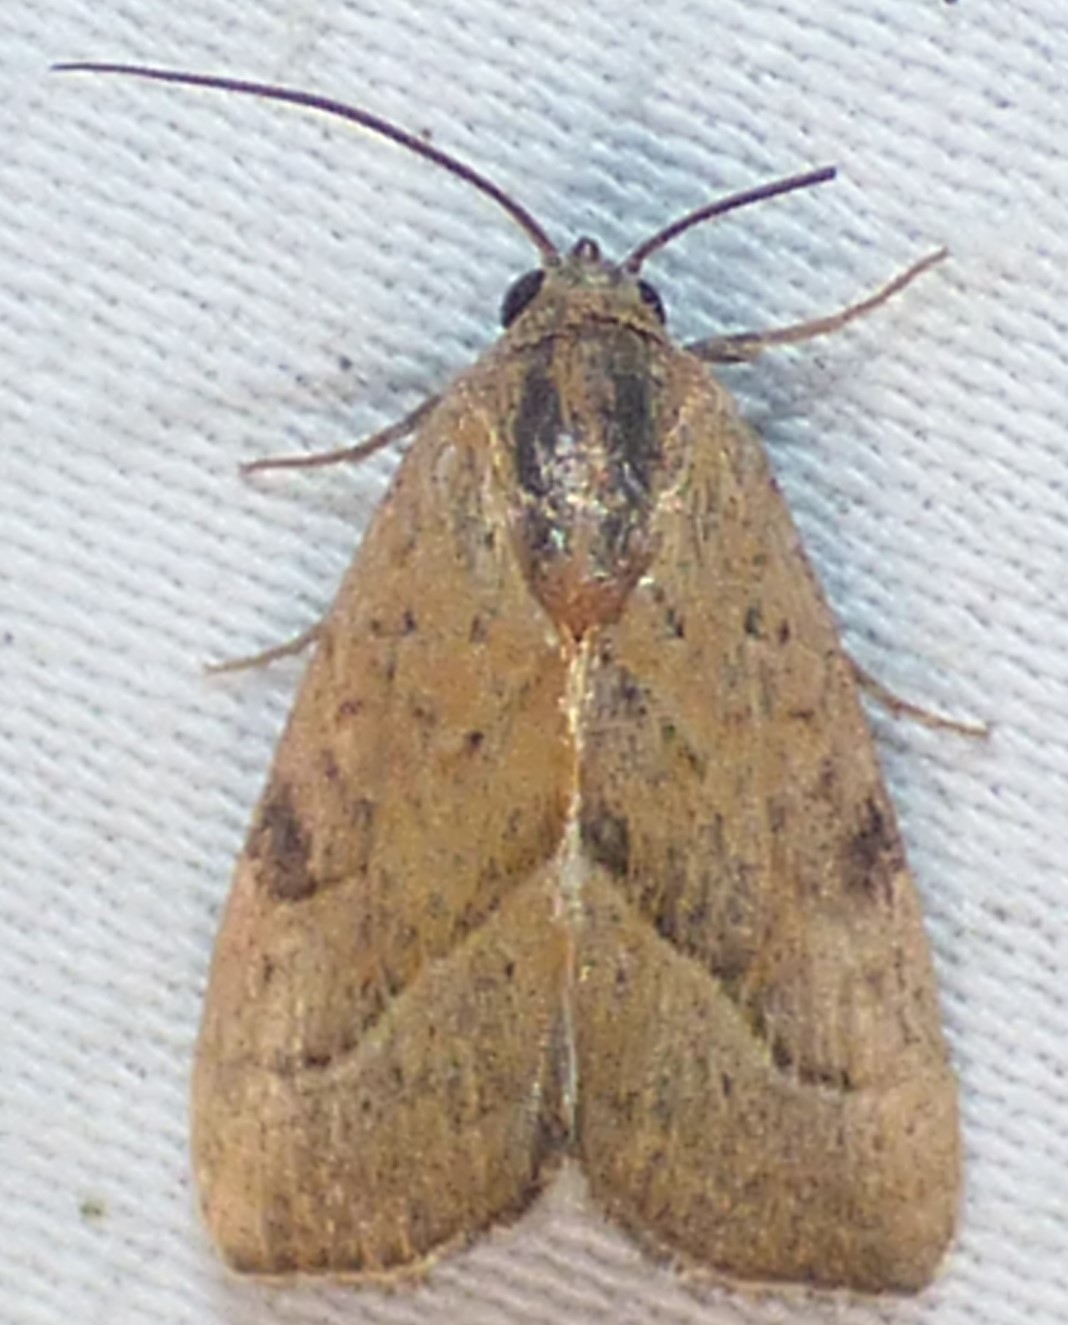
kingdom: Animalia
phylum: Arthropoda
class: Insecta
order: Lepidoptera
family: Noctuidae
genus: Galgula
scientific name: Galgula partita
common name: Wedgeling
